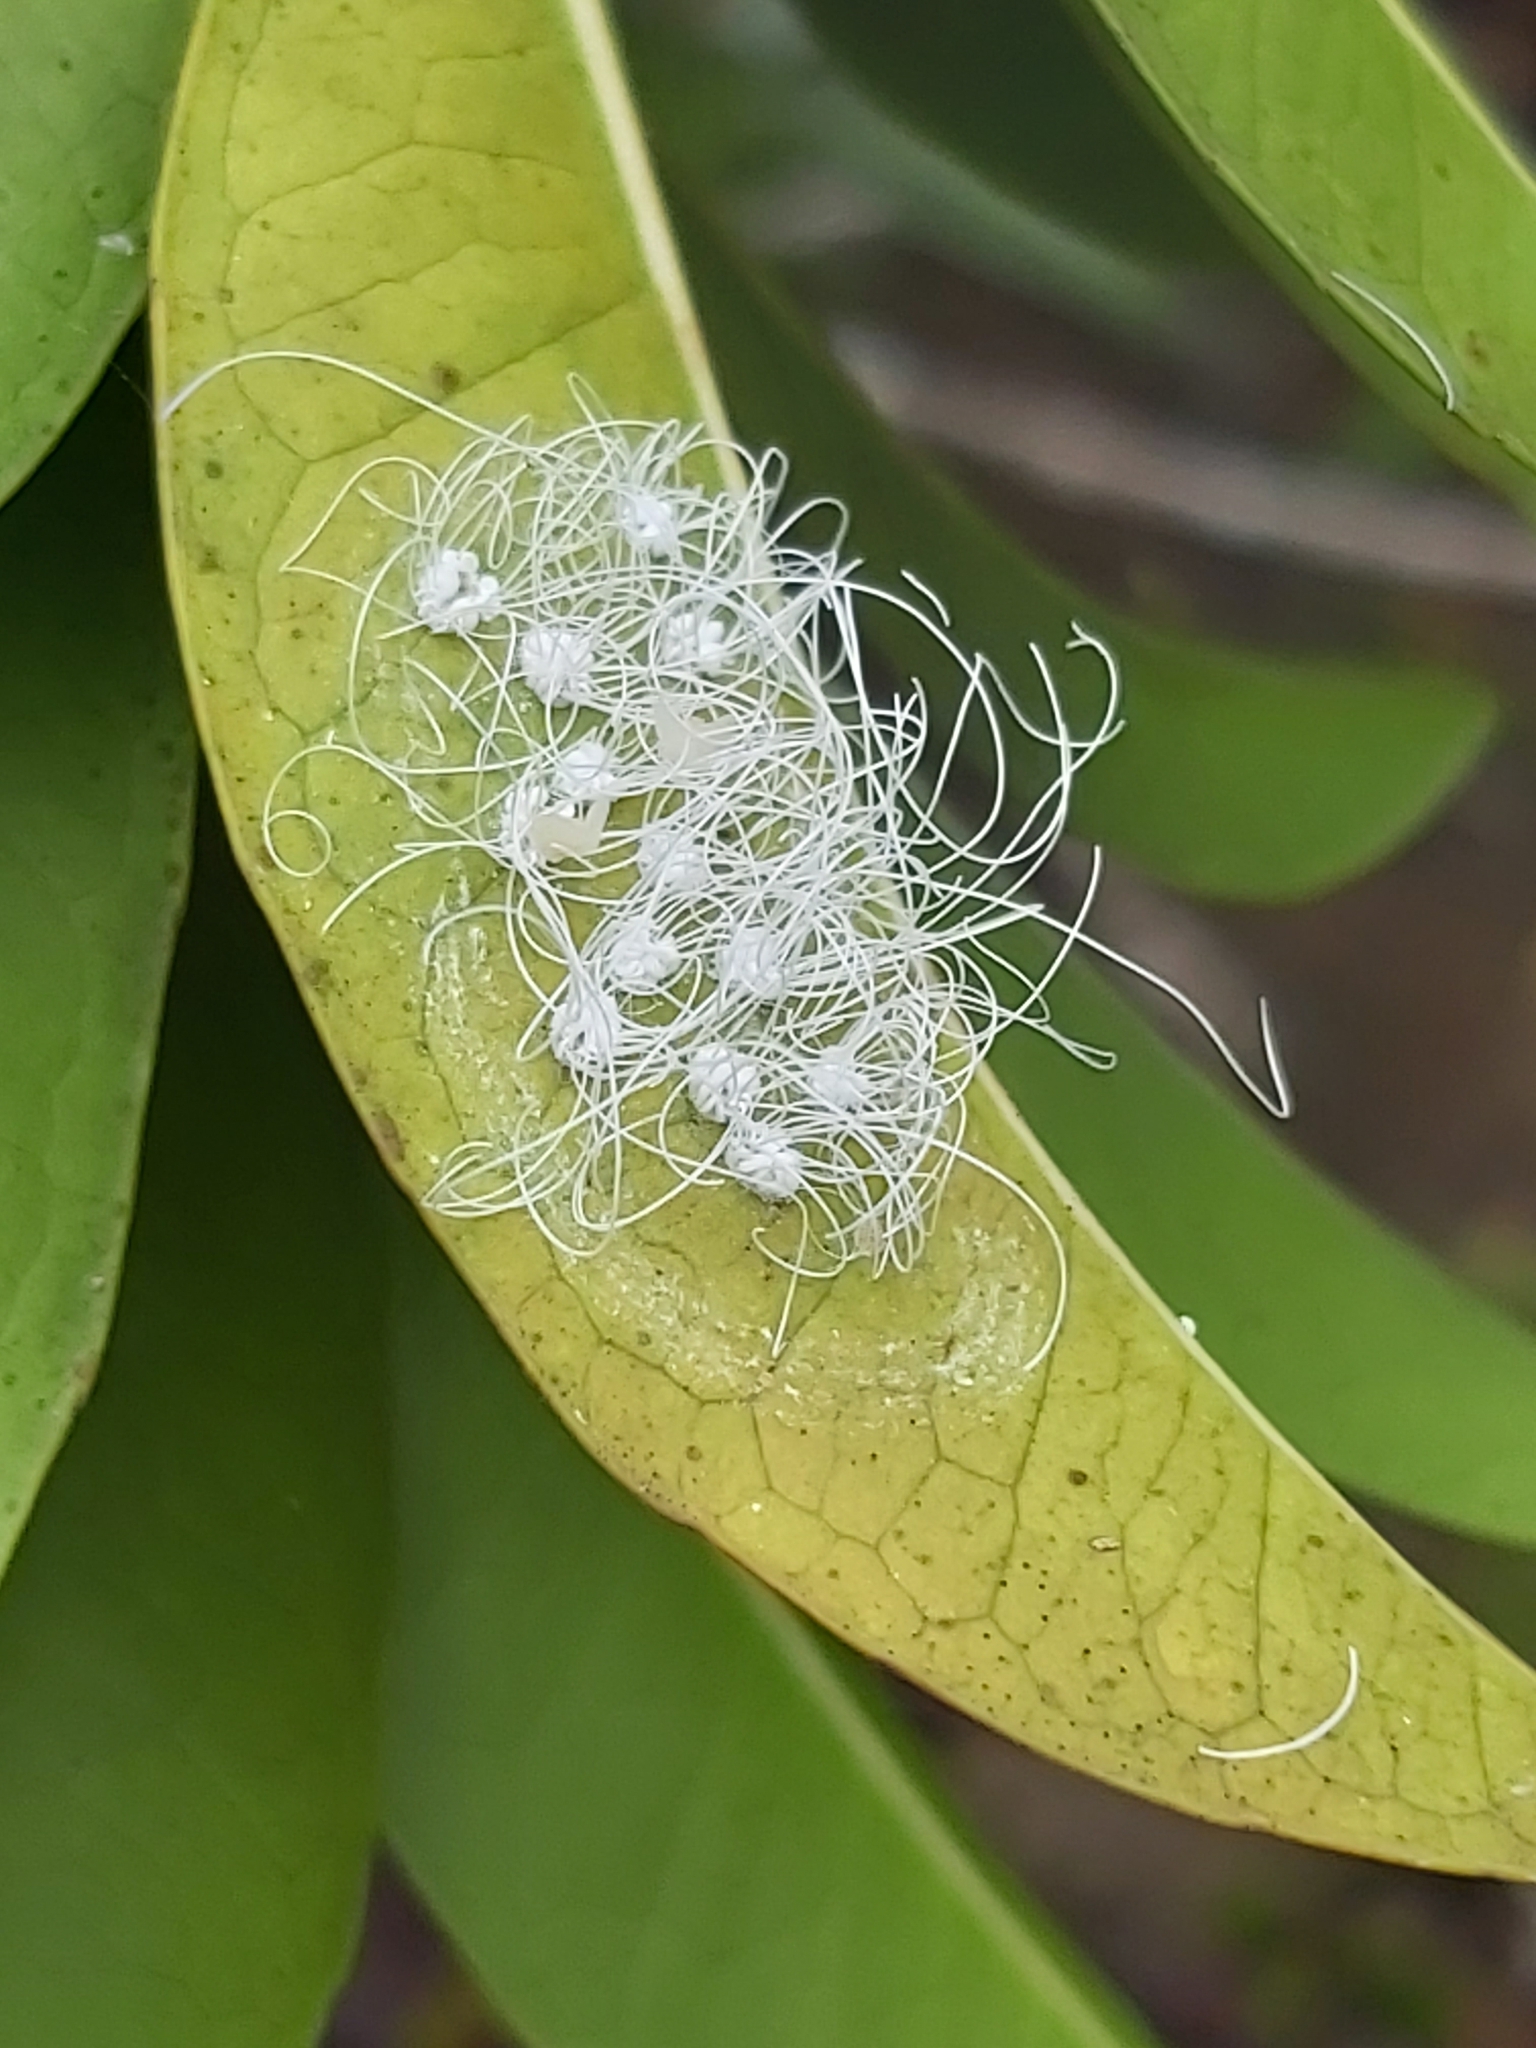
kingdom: Animalia
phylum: Arthropoda
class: Insecta
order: Hemiptera
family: Aleyrodidae
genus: Aleuroctarthrus
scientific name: Aleuroctarthrus
